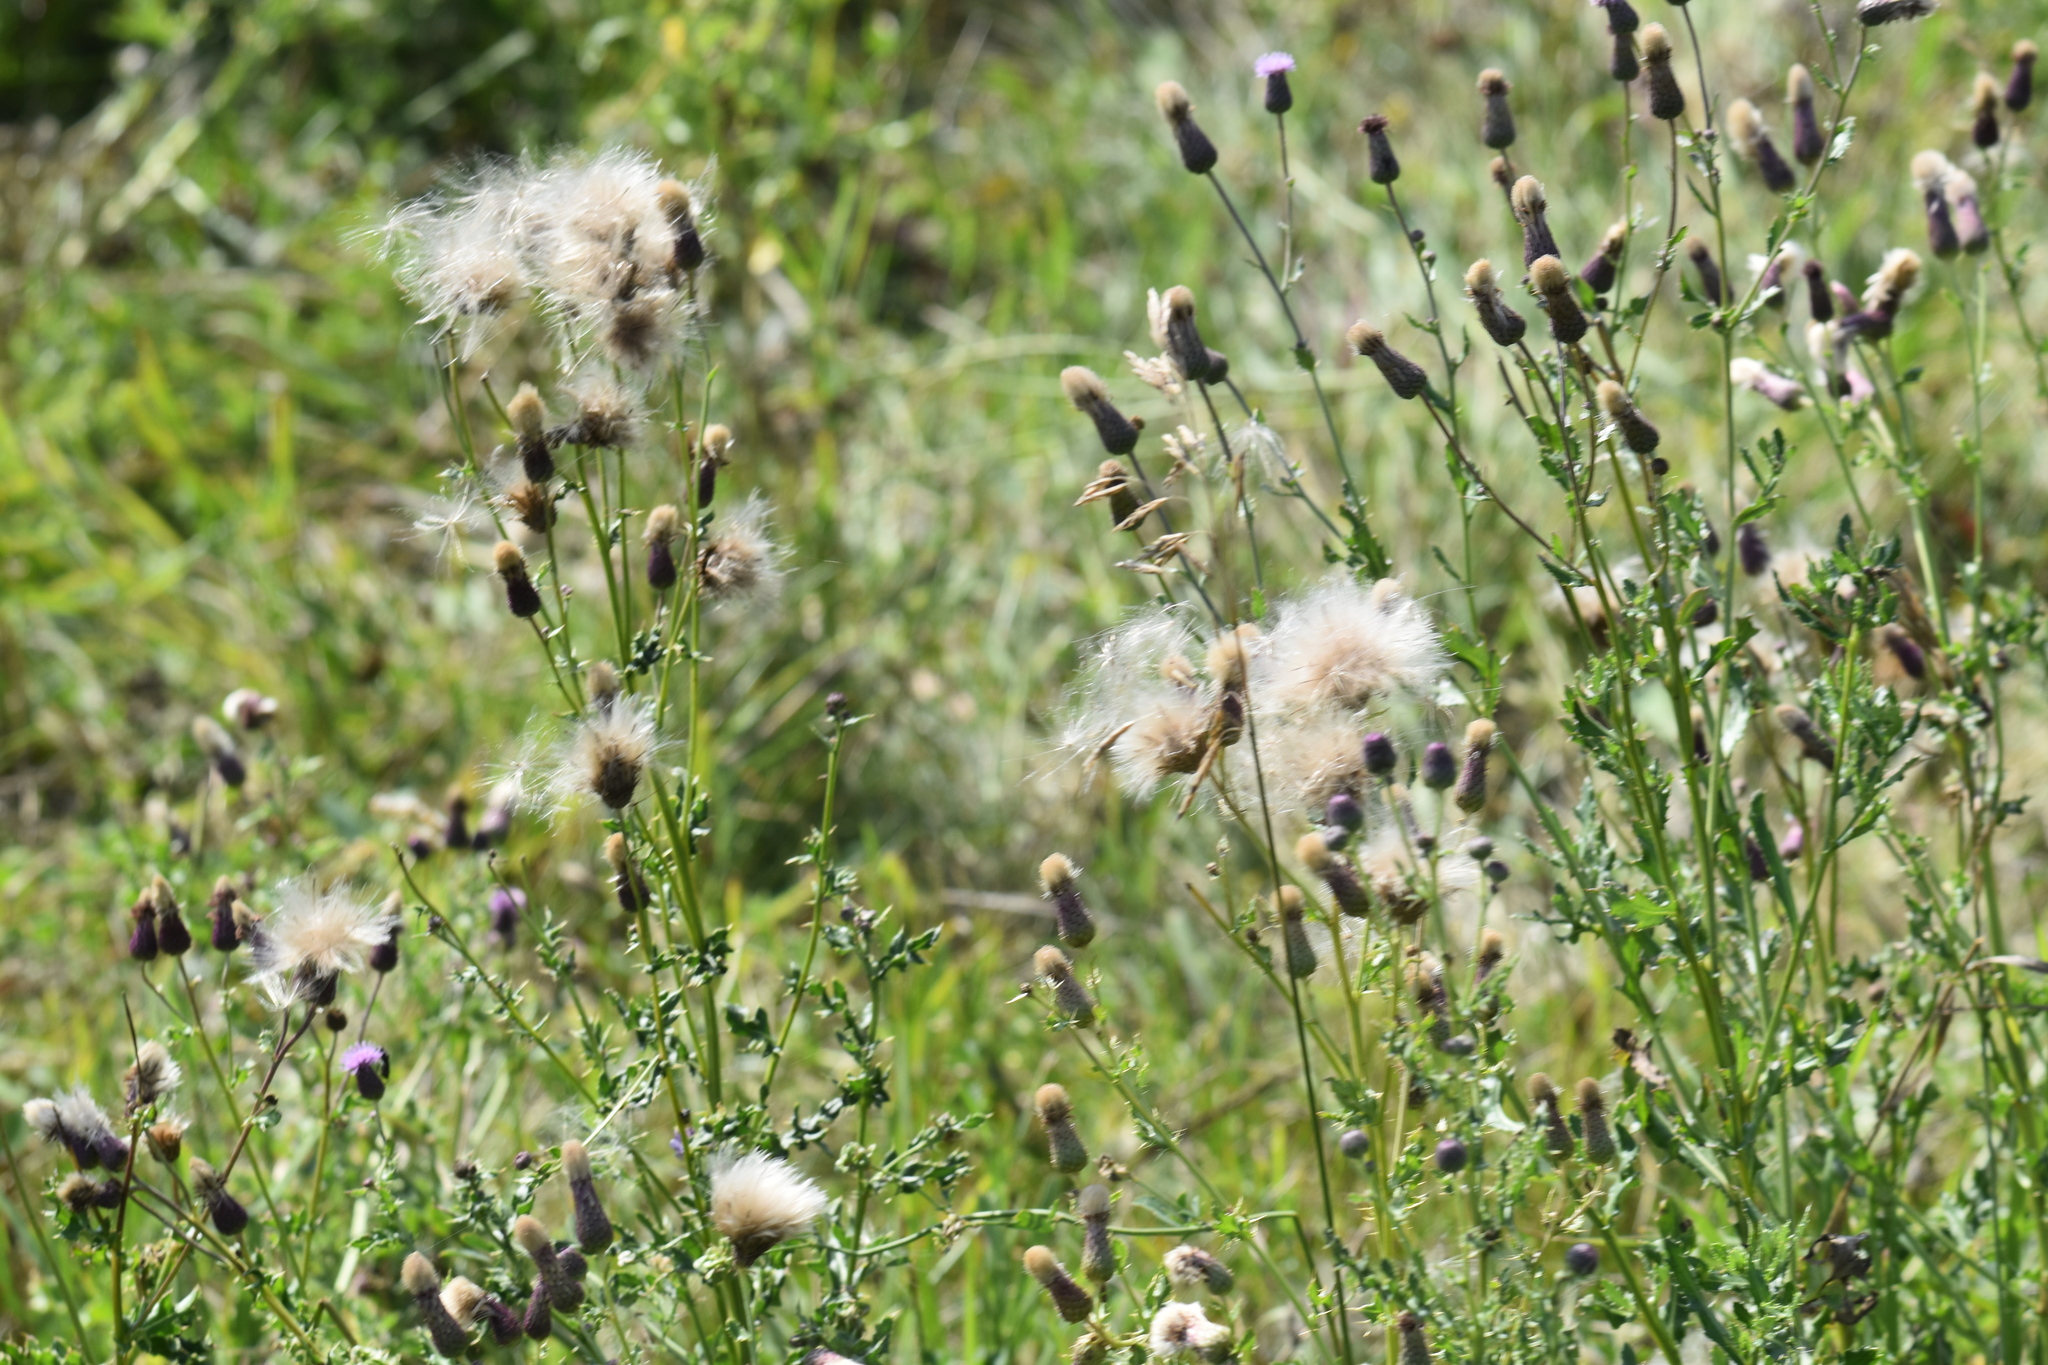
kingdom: Plantae
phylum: Tracheophyta
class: Magnoliopsida
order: Asterales
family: Asteraceae
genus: Cirsium
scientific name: Cirsium arvense
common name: Creeping thistle
